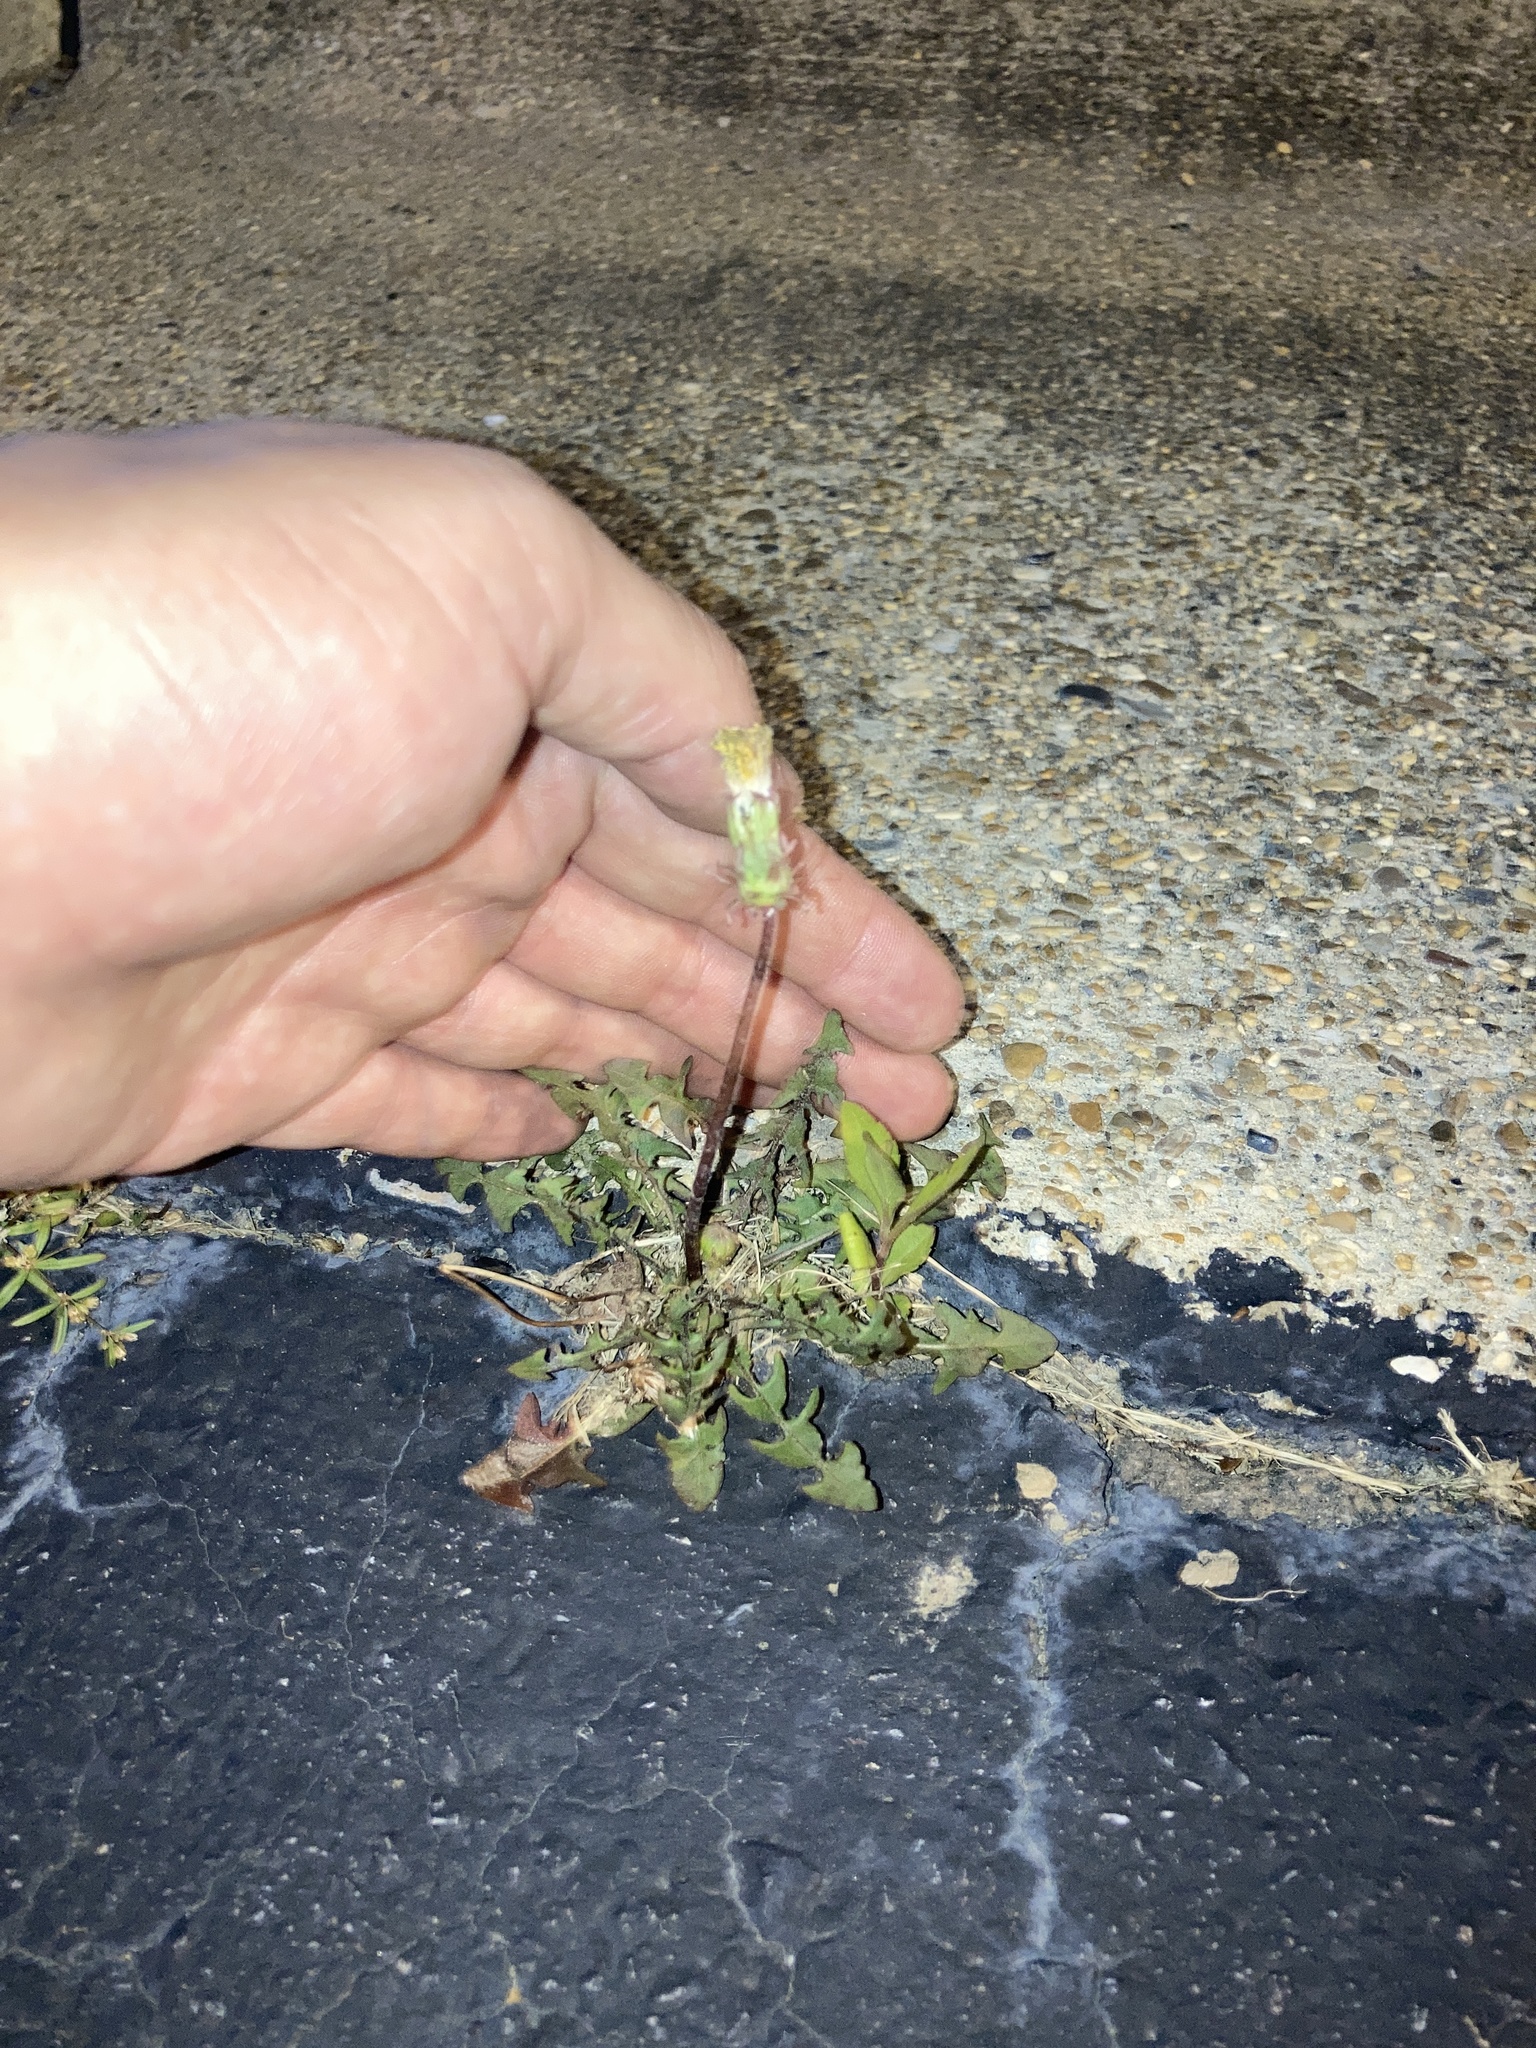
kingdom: Plantae
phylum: Tracheophyta
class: Magnoliopsida
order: Asterales
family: Asteraceae
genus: Taraxacum
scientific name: Taraxacum officinale
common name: Common dandelion
